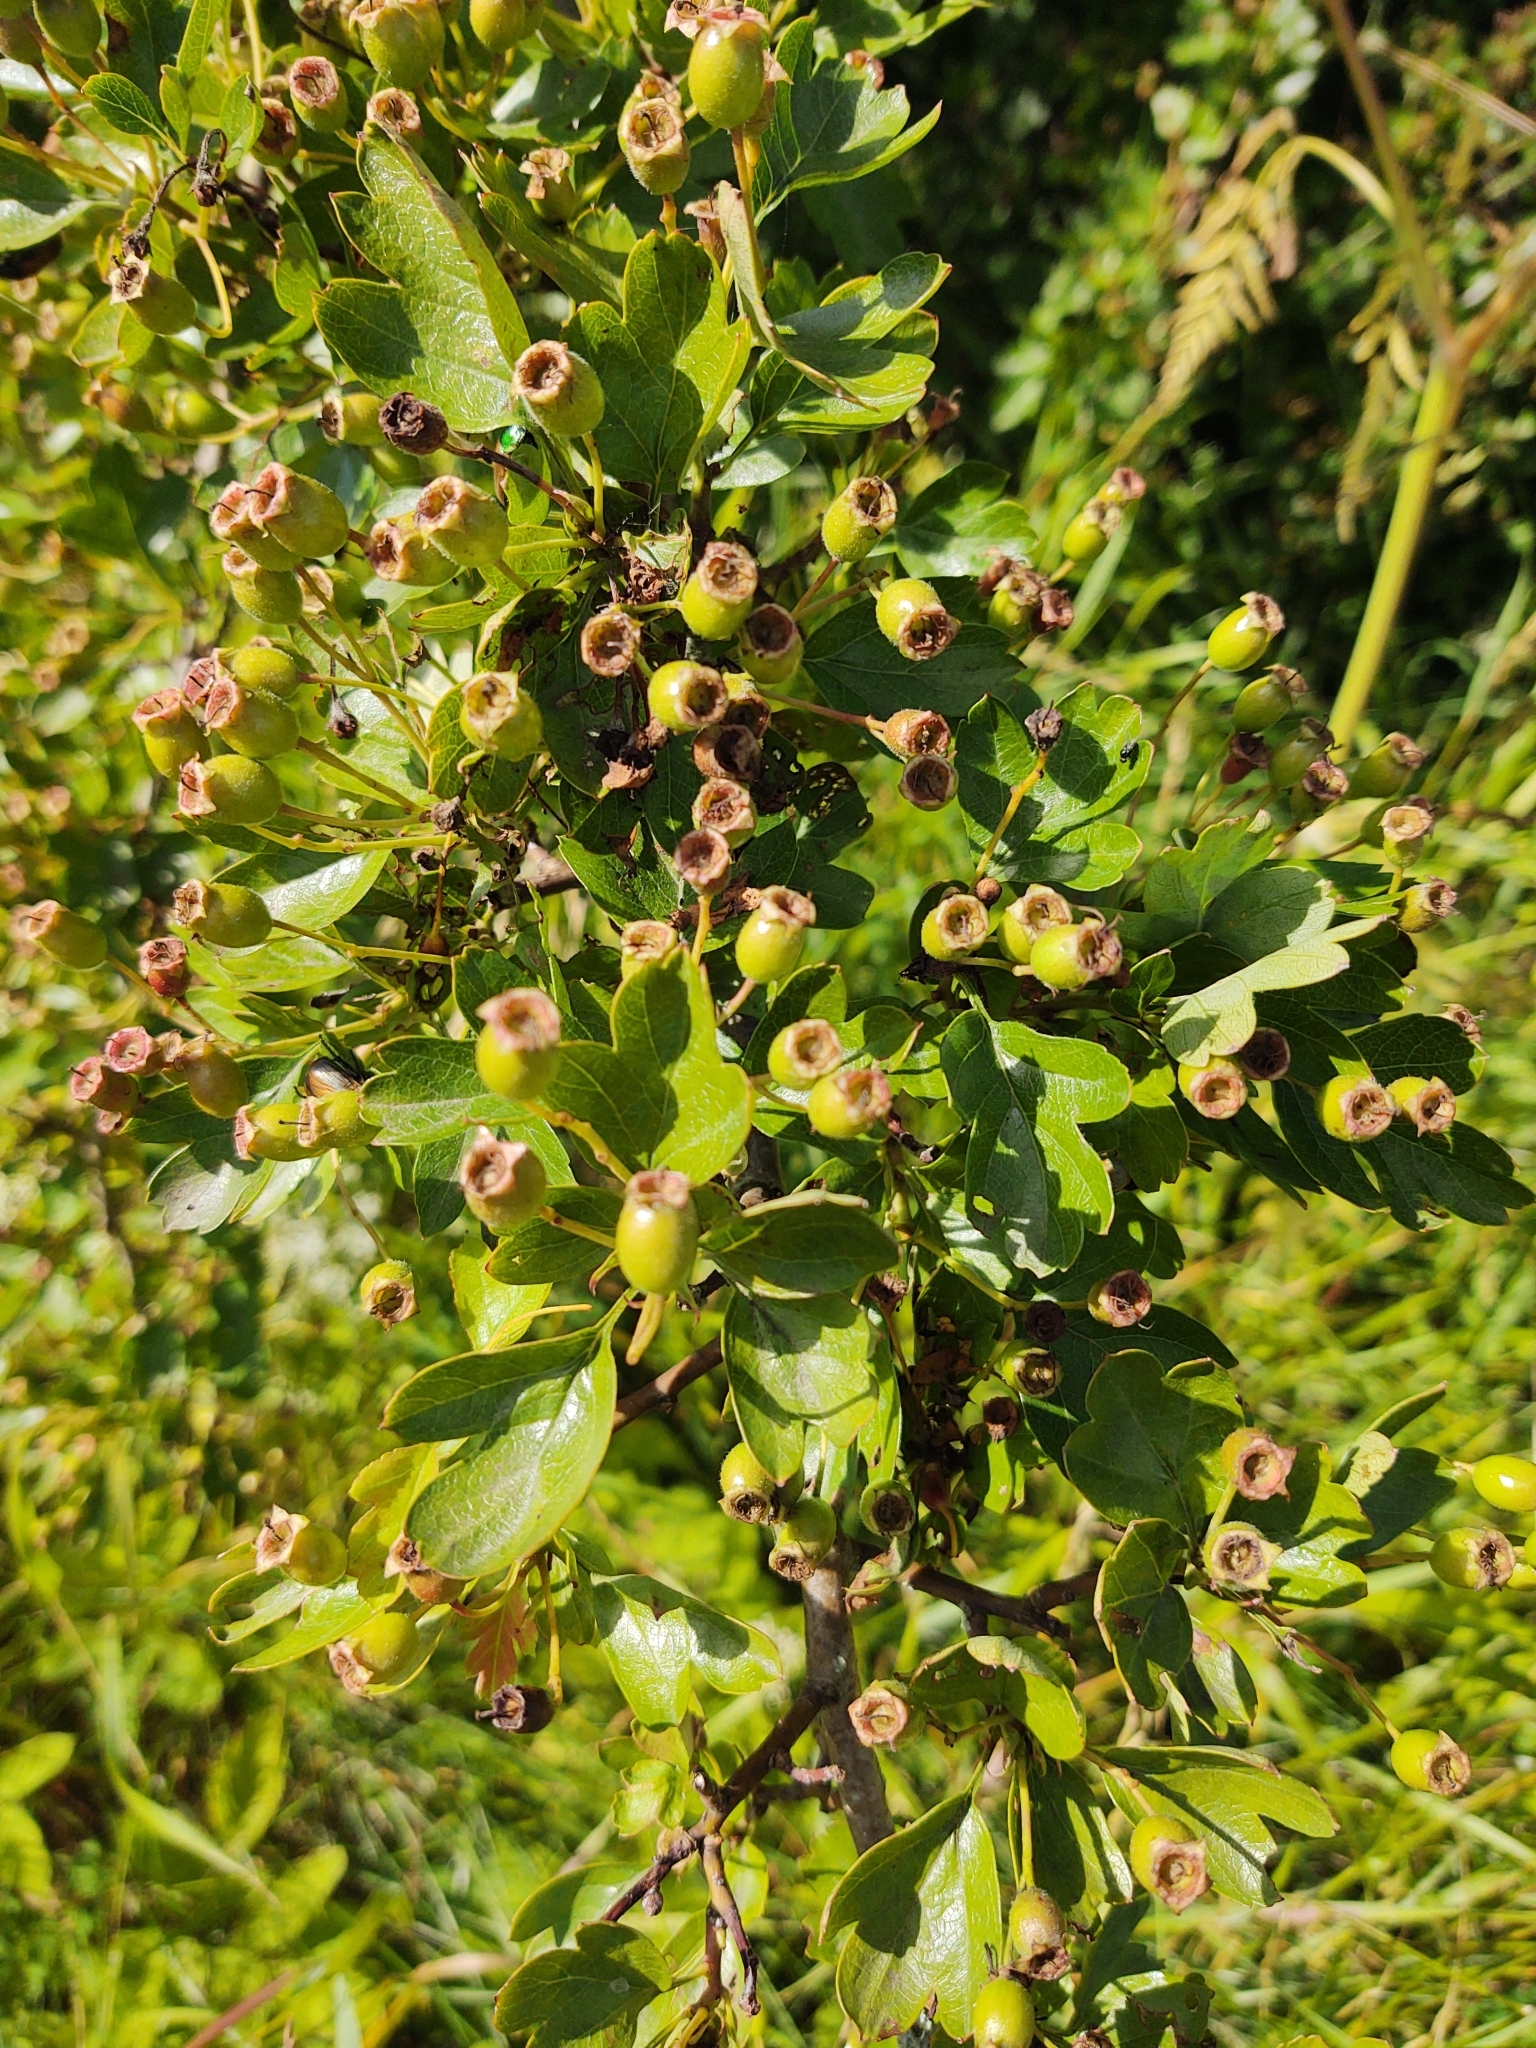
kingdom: Plantae
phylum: Tracheophyta
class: Magnoliopsida
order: Rosales
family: Rosaceae
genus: Crataegus
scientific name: Crataegus monogyna
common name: Hawthorn
